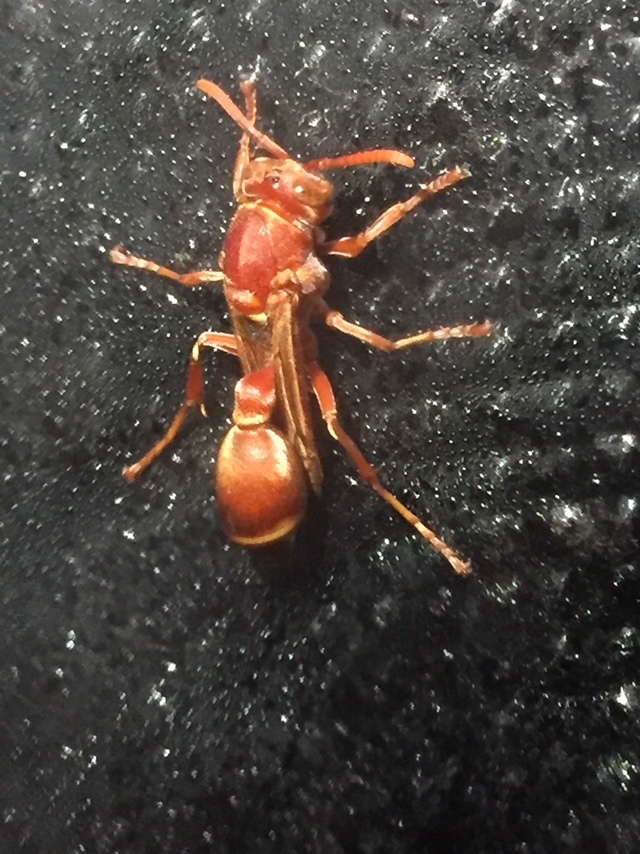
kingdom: Animalia
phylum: Arthropoda
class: Insecta
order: Hymenoptera
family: Vespidae
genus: Ropalidia
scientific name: Ropalidia marginata
